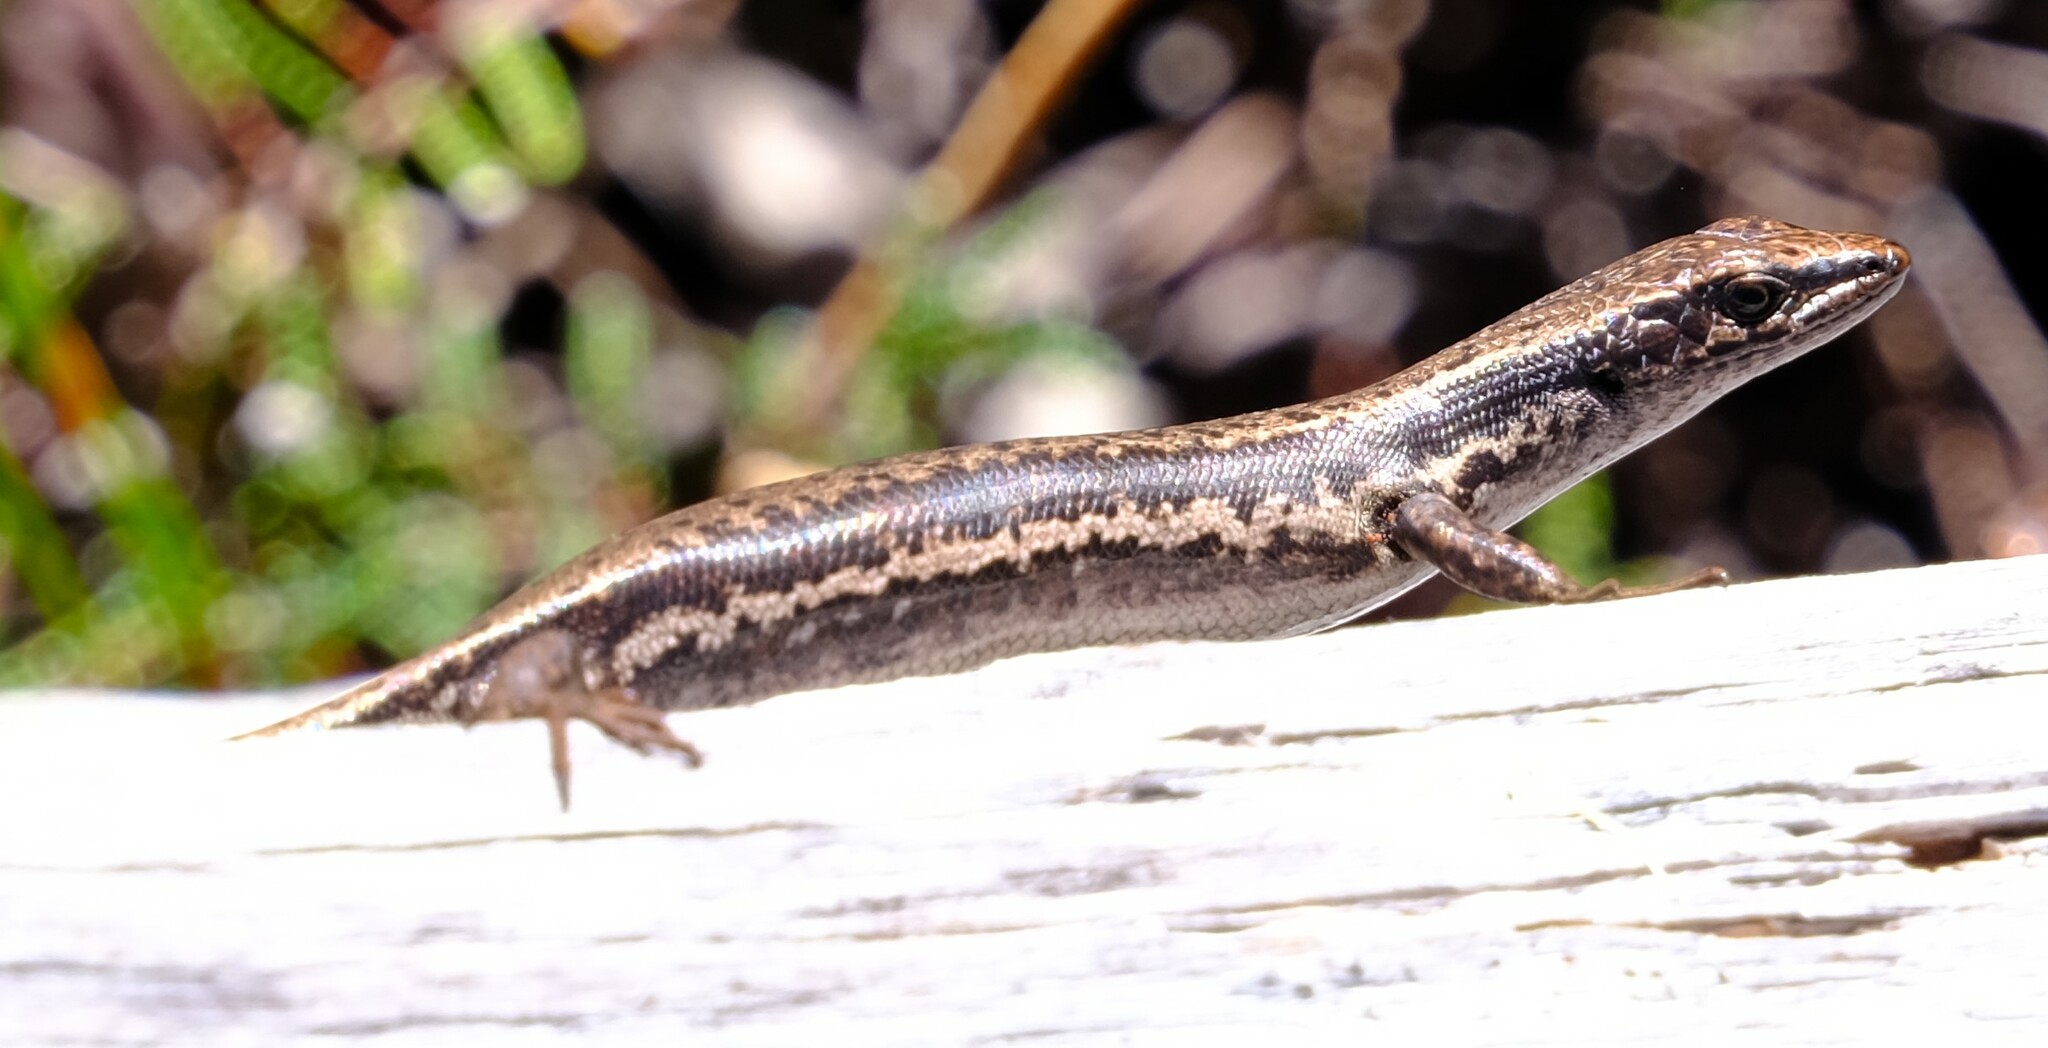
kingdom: Animalia
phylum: Chordata
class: Squamata
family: Scincidae
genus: Carinascincus
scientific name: Carinascincus pretiosus
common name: Agile cool-skink
